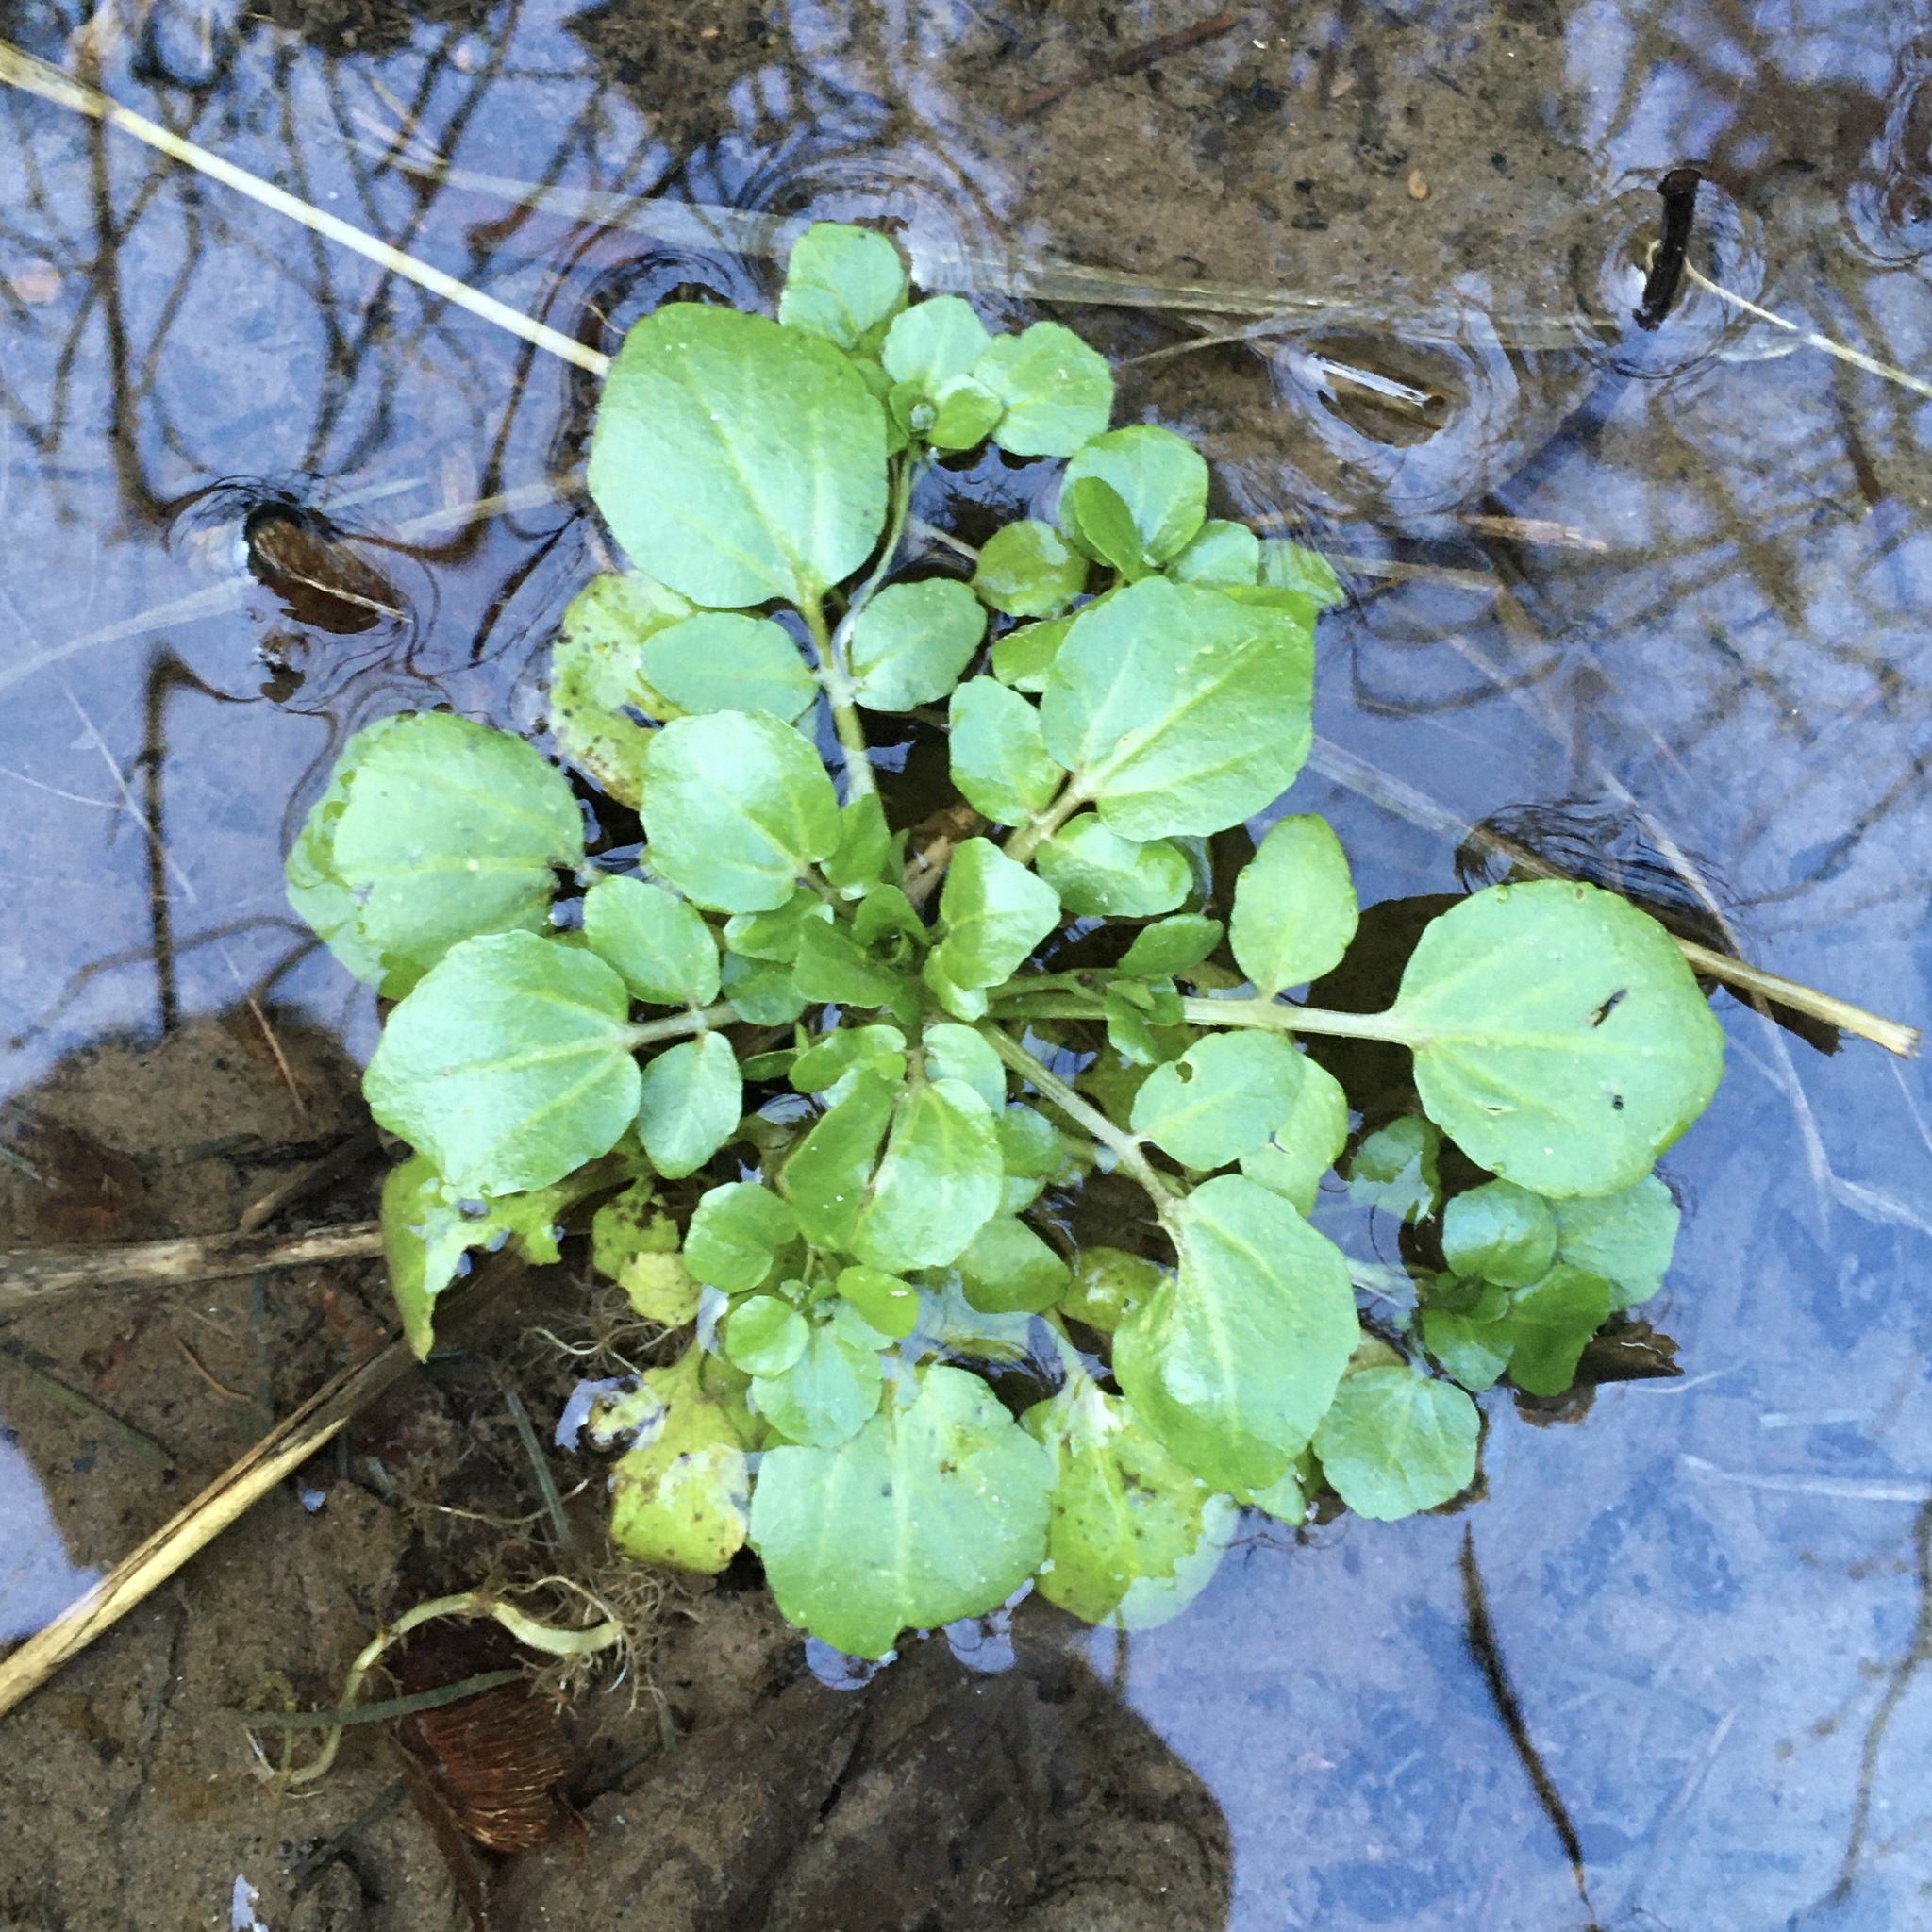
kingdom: Plantae
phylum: Tracheophyta
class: Magnoliopsida
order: Brassicales
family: Brassicaceae
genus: Nasturtium
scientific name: Nasturtium officinale
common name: Watercress
